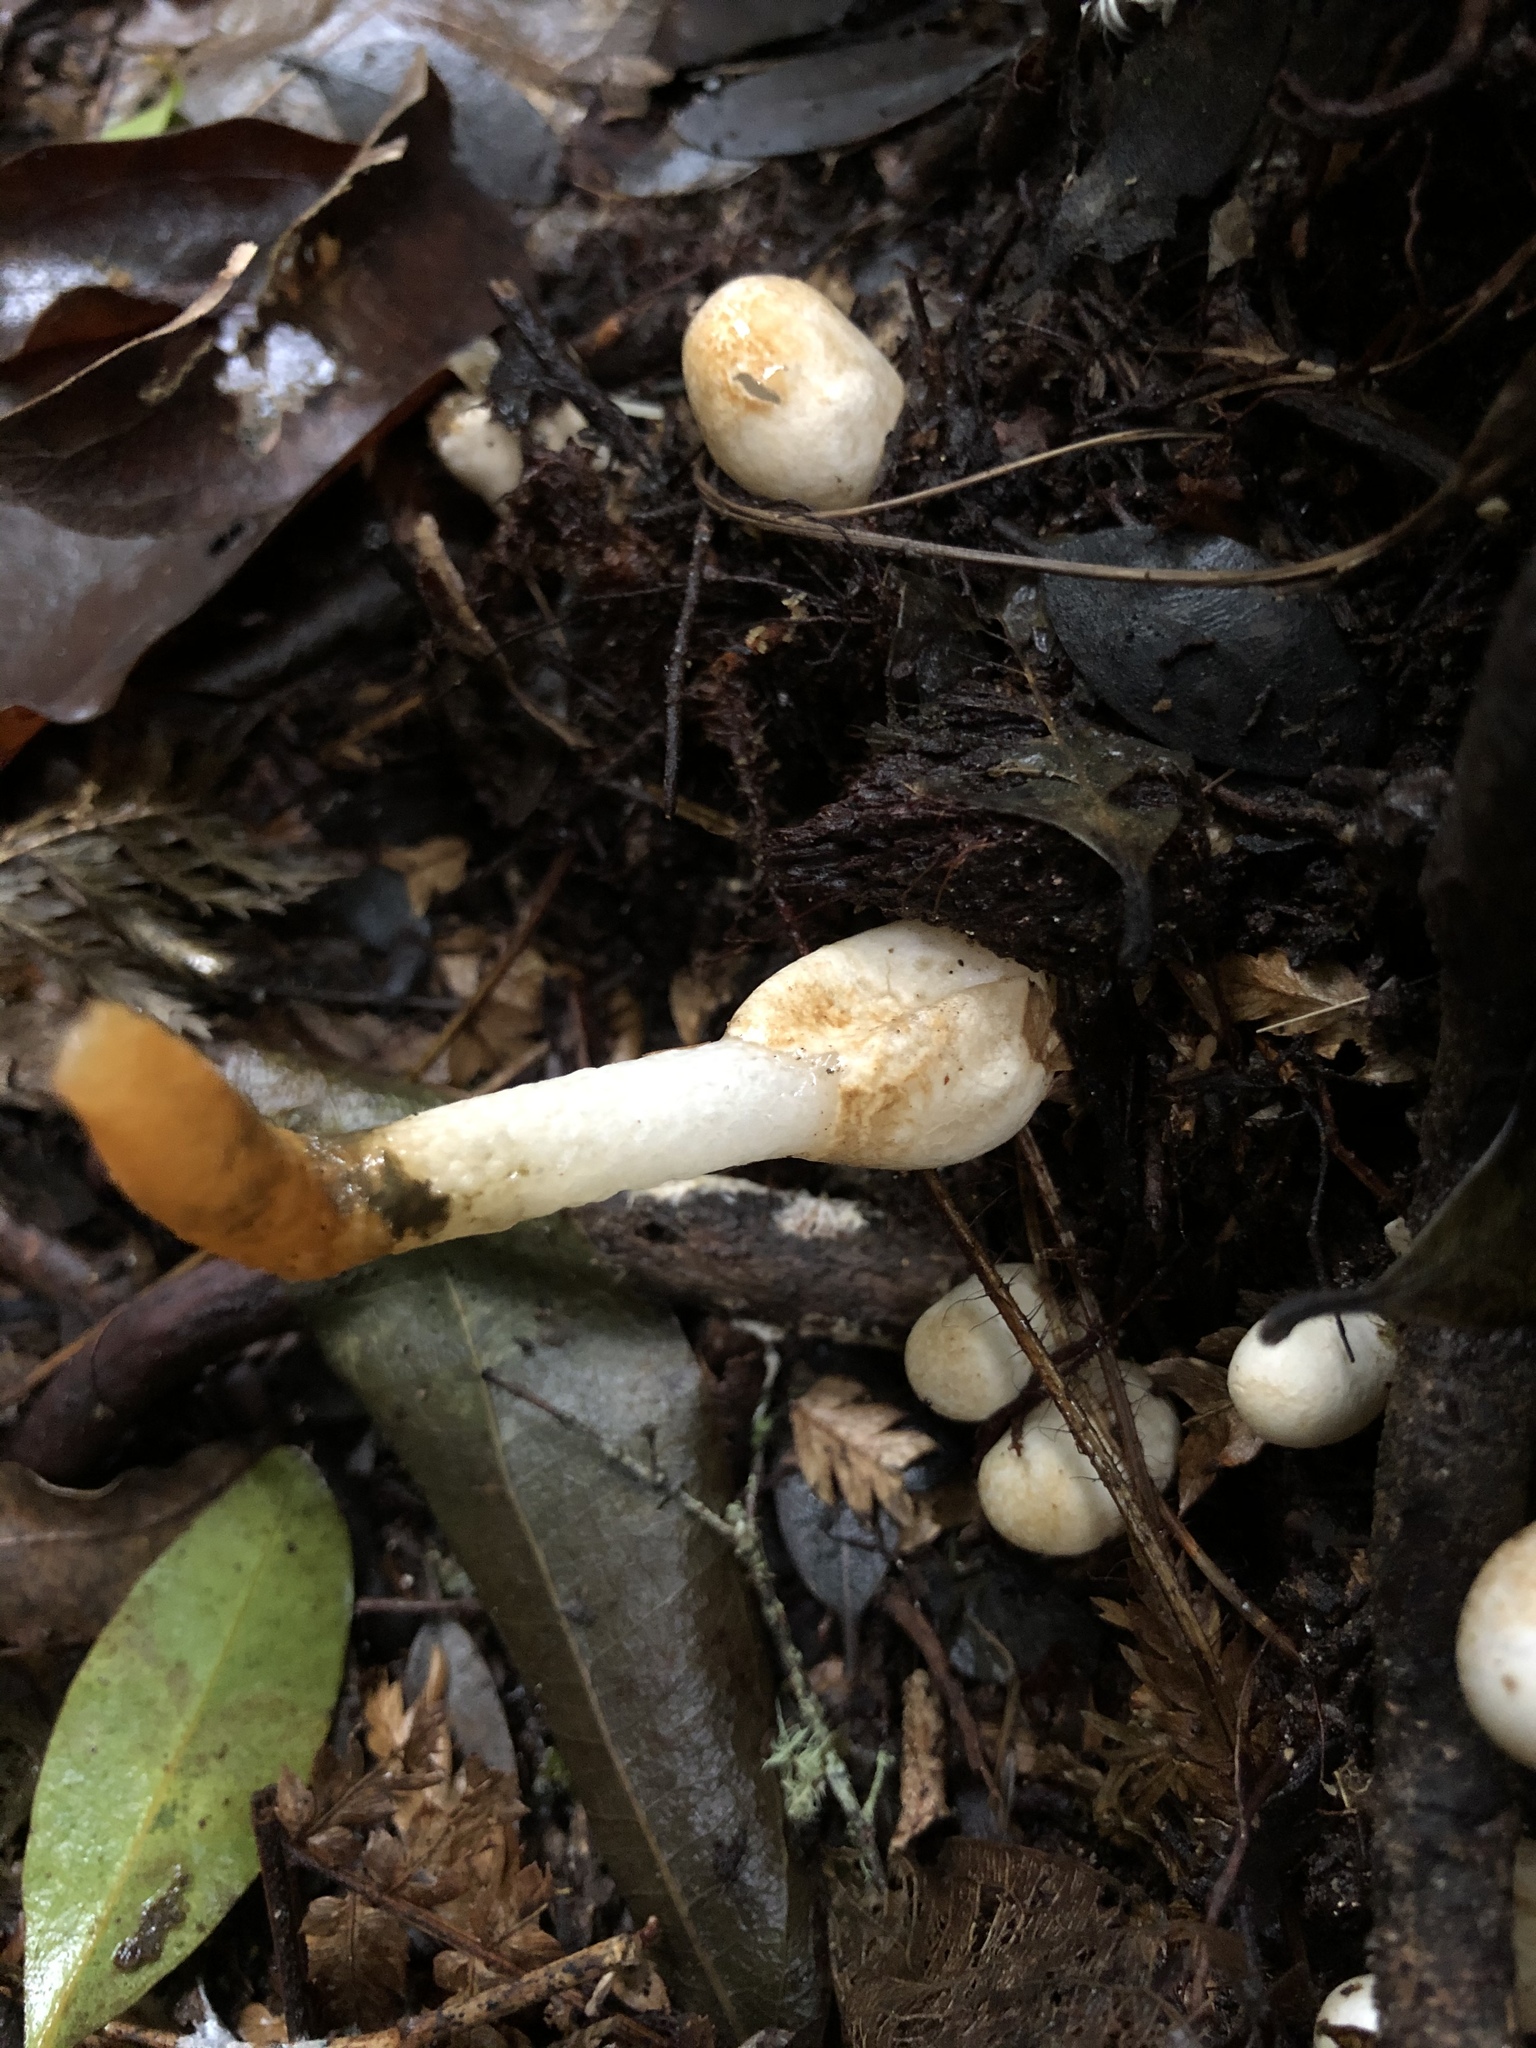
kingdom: Fungi
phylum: Basidiomycota
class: Agaricomycetes
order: Phallales
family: Phallaceae
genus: Mutinus
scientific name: Mutinus
